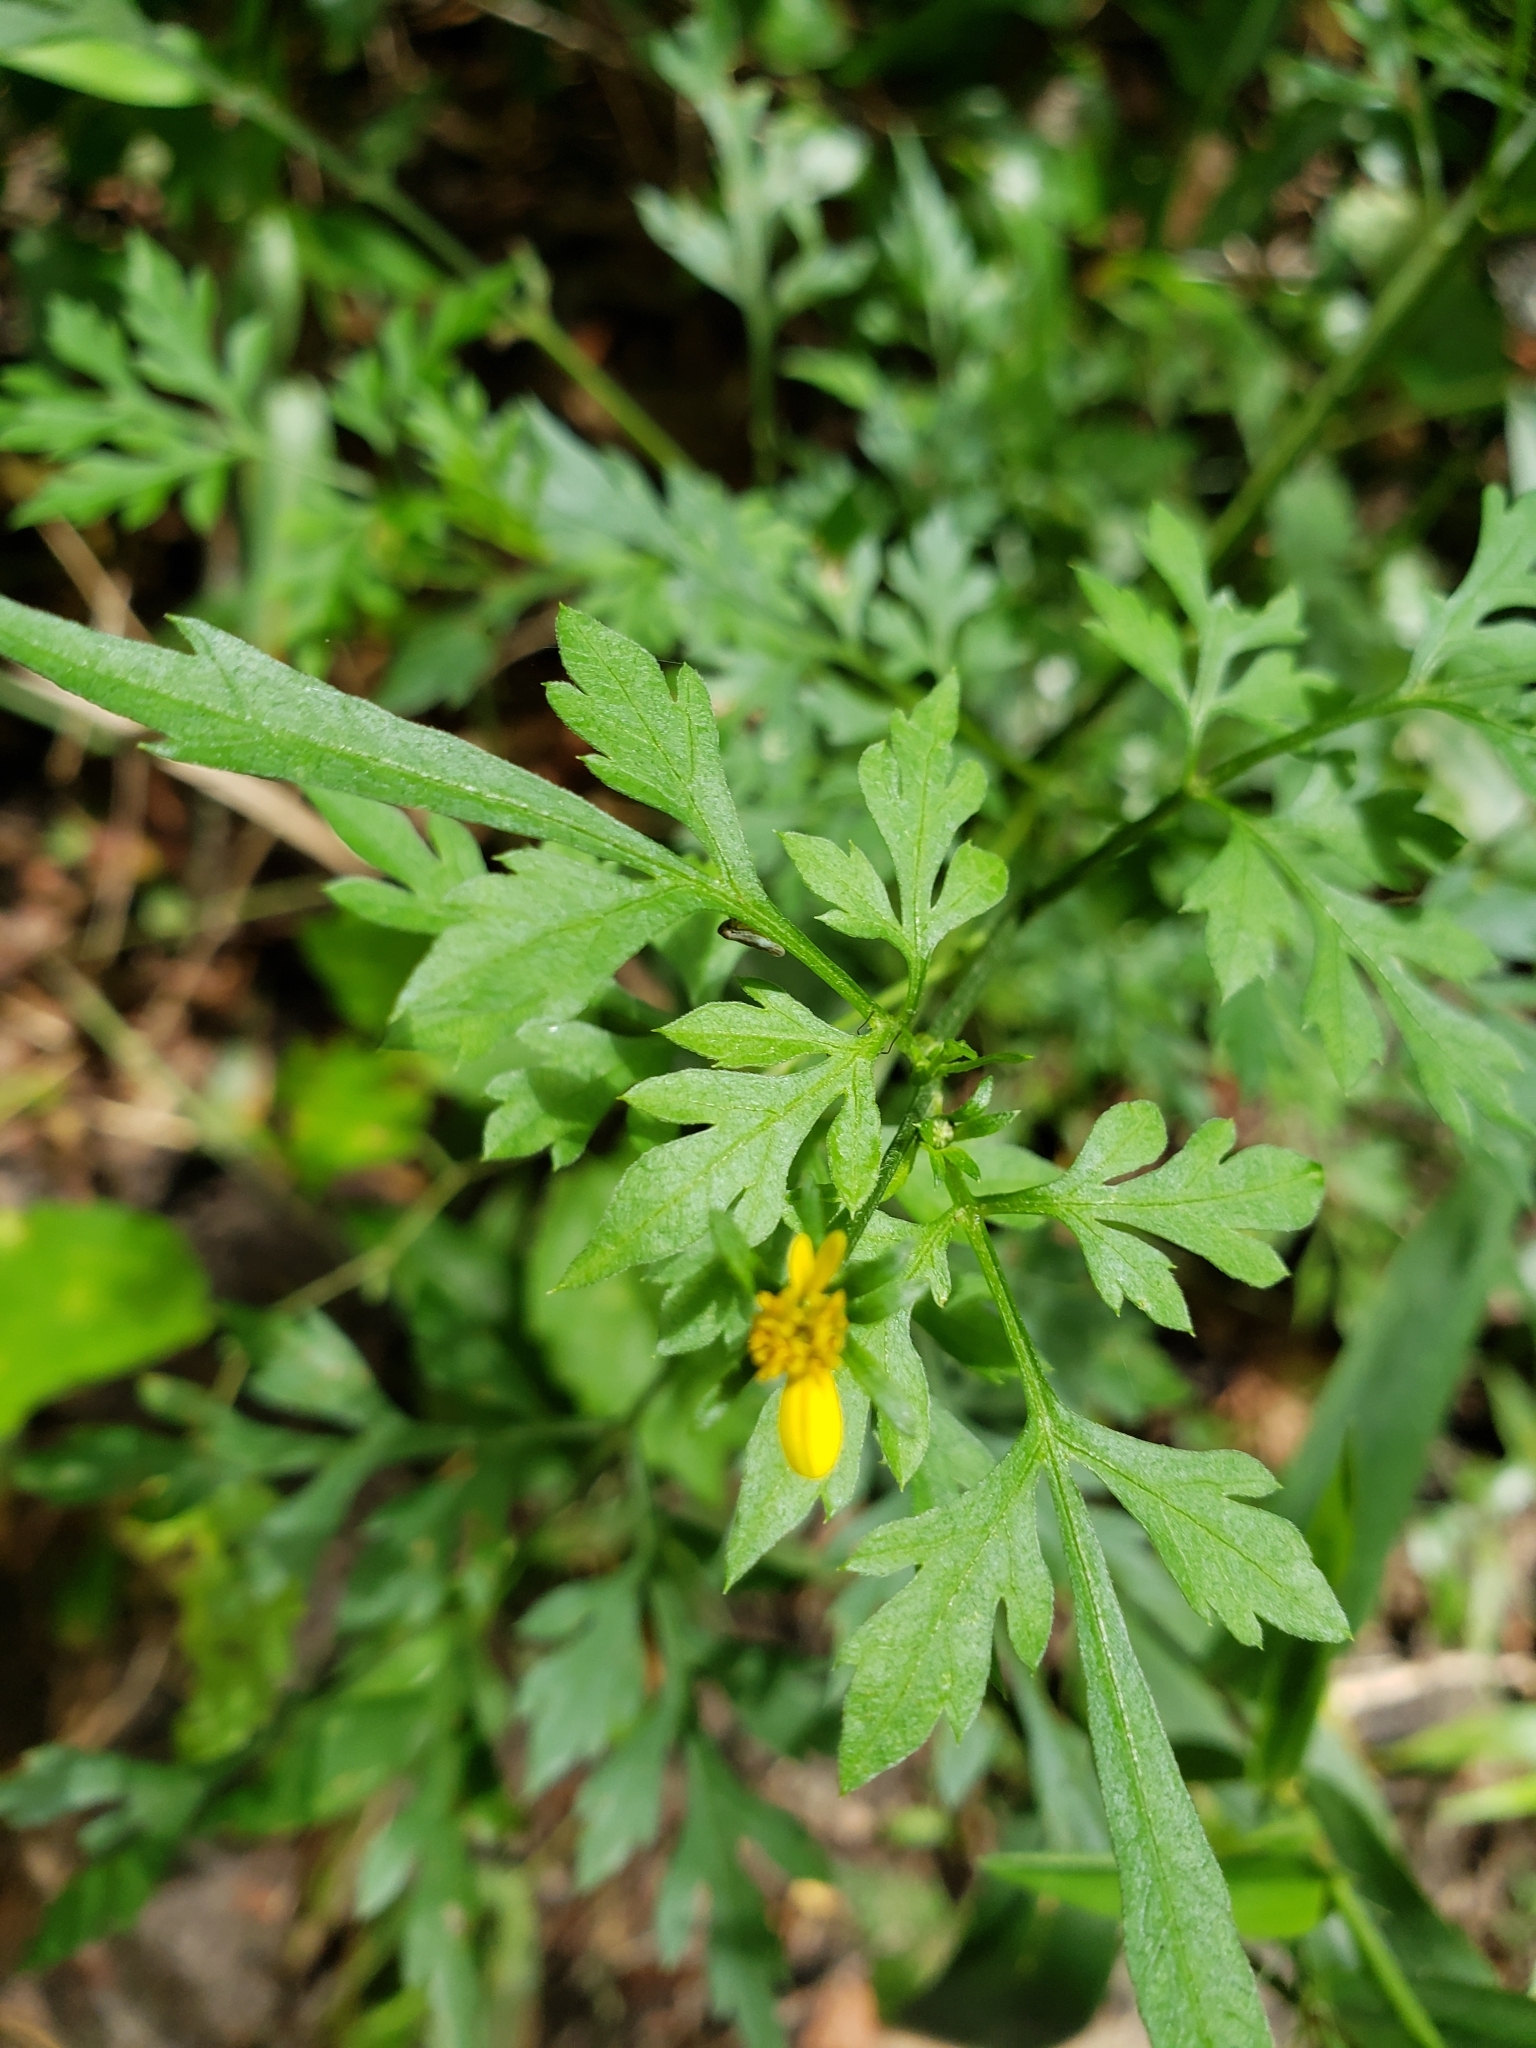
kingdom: Plantae
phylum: Tracheophyta
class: Magnoliopsida
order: Asterales
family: Asteraceae
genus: Bidens
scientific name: Bidens bipinnata
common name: Spanish-needles
